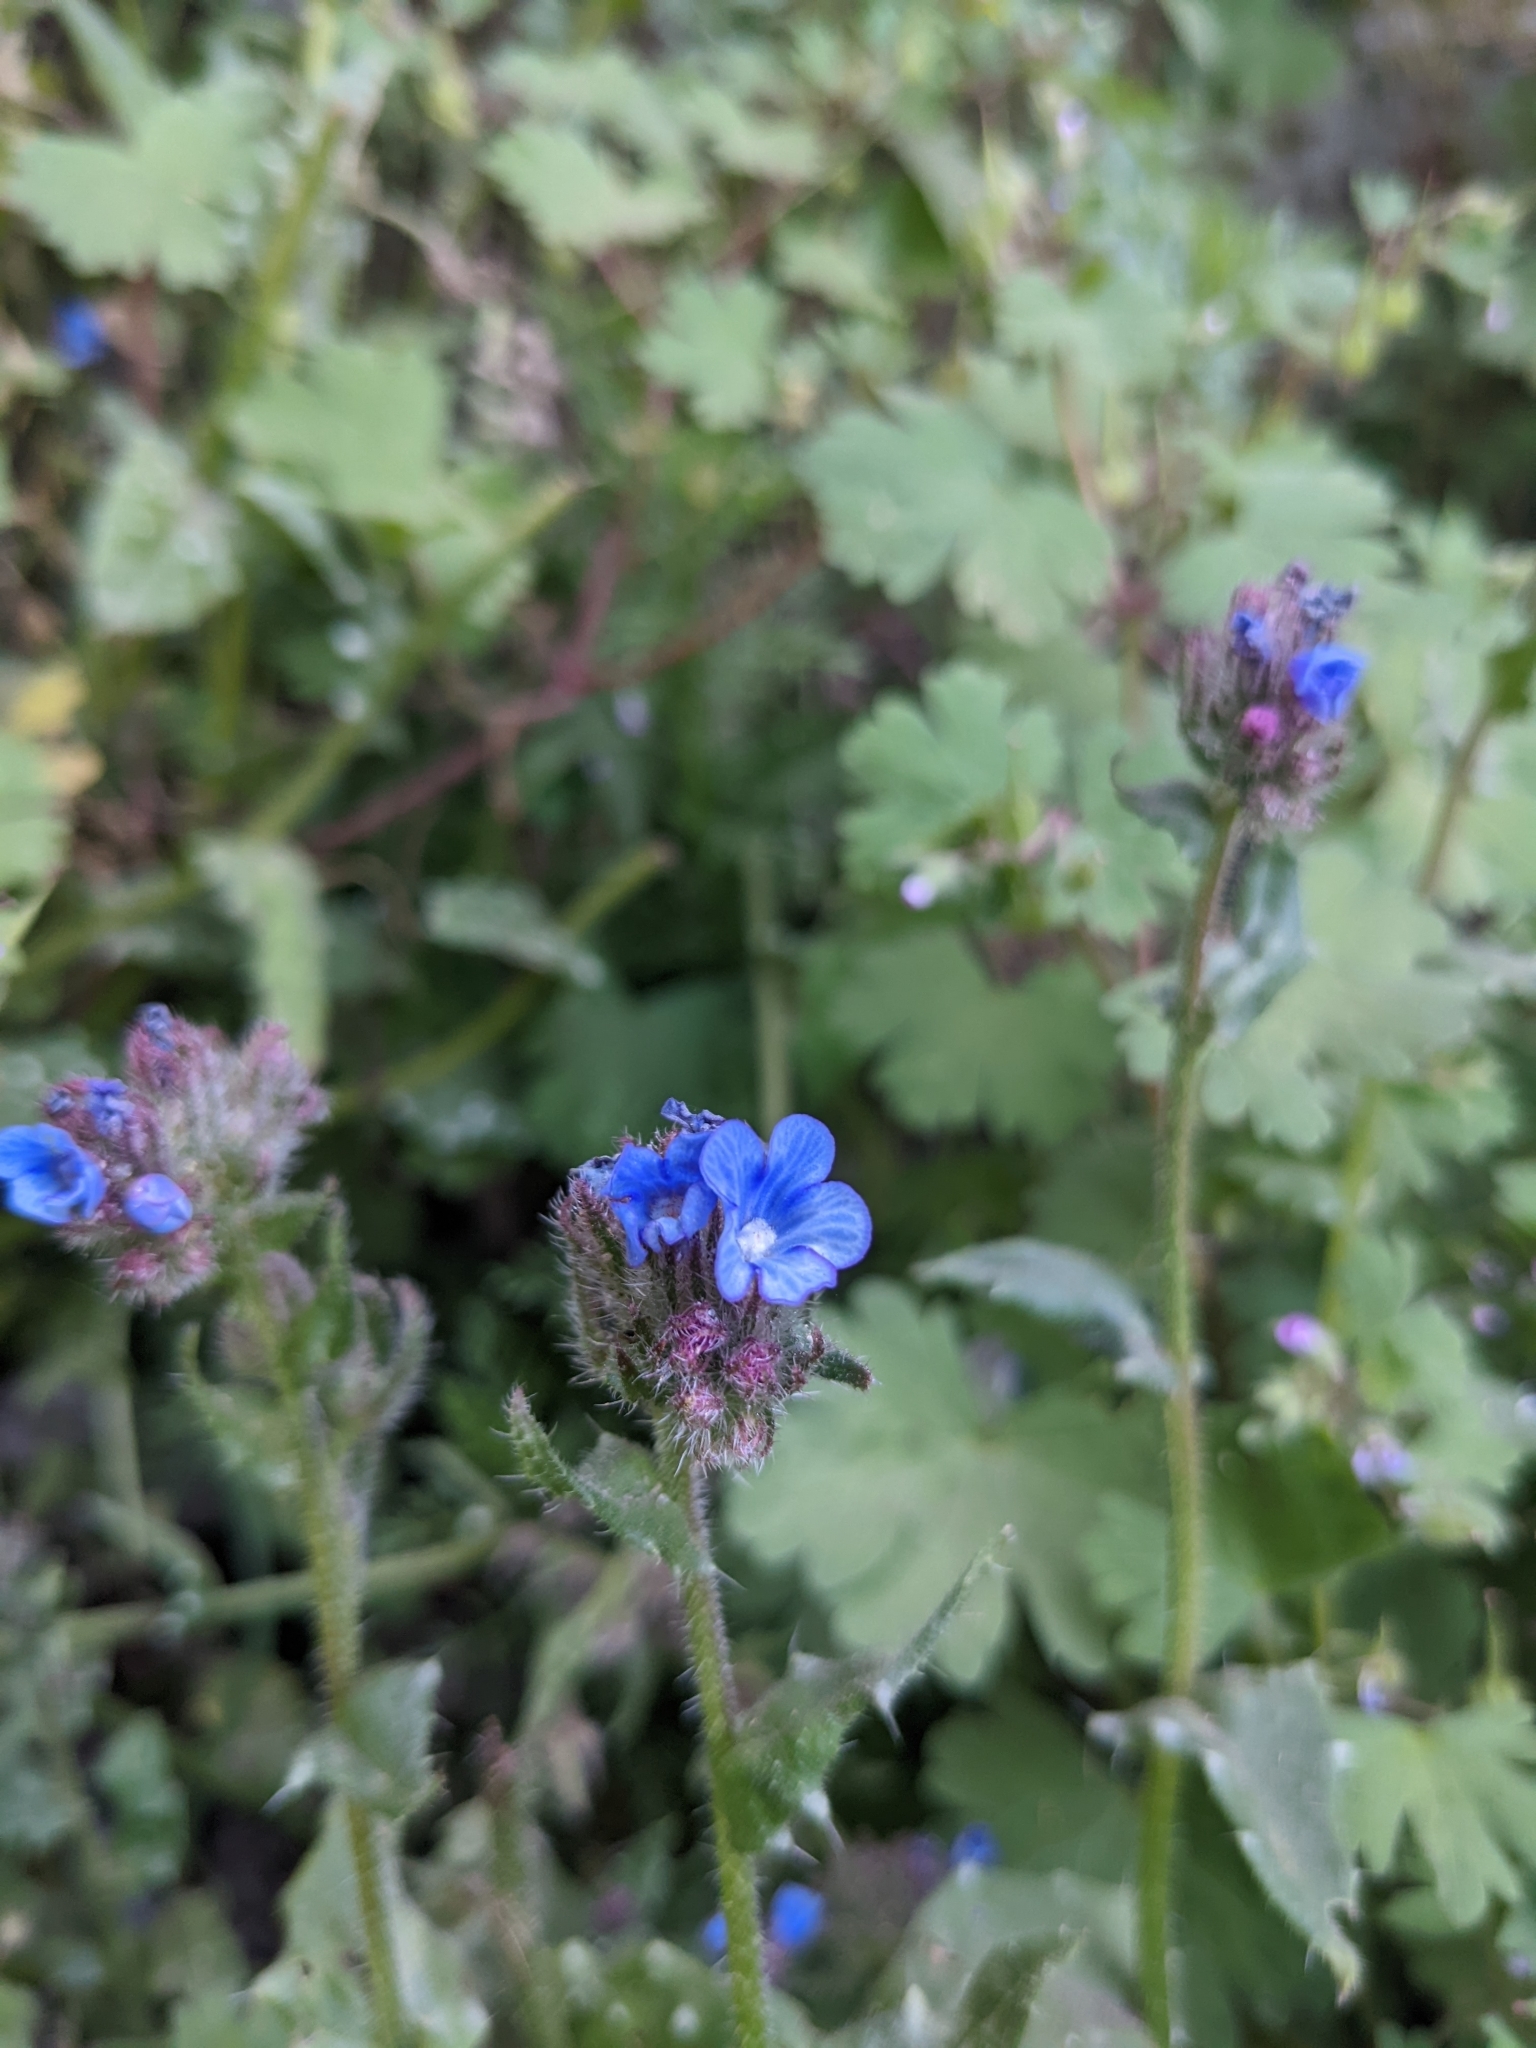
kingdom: Plantae
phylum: Tracheophyta
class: Magnoliopsida
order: Boraginales
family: Boraginaceae
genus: Anchusella
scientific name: Anchusella cretica
